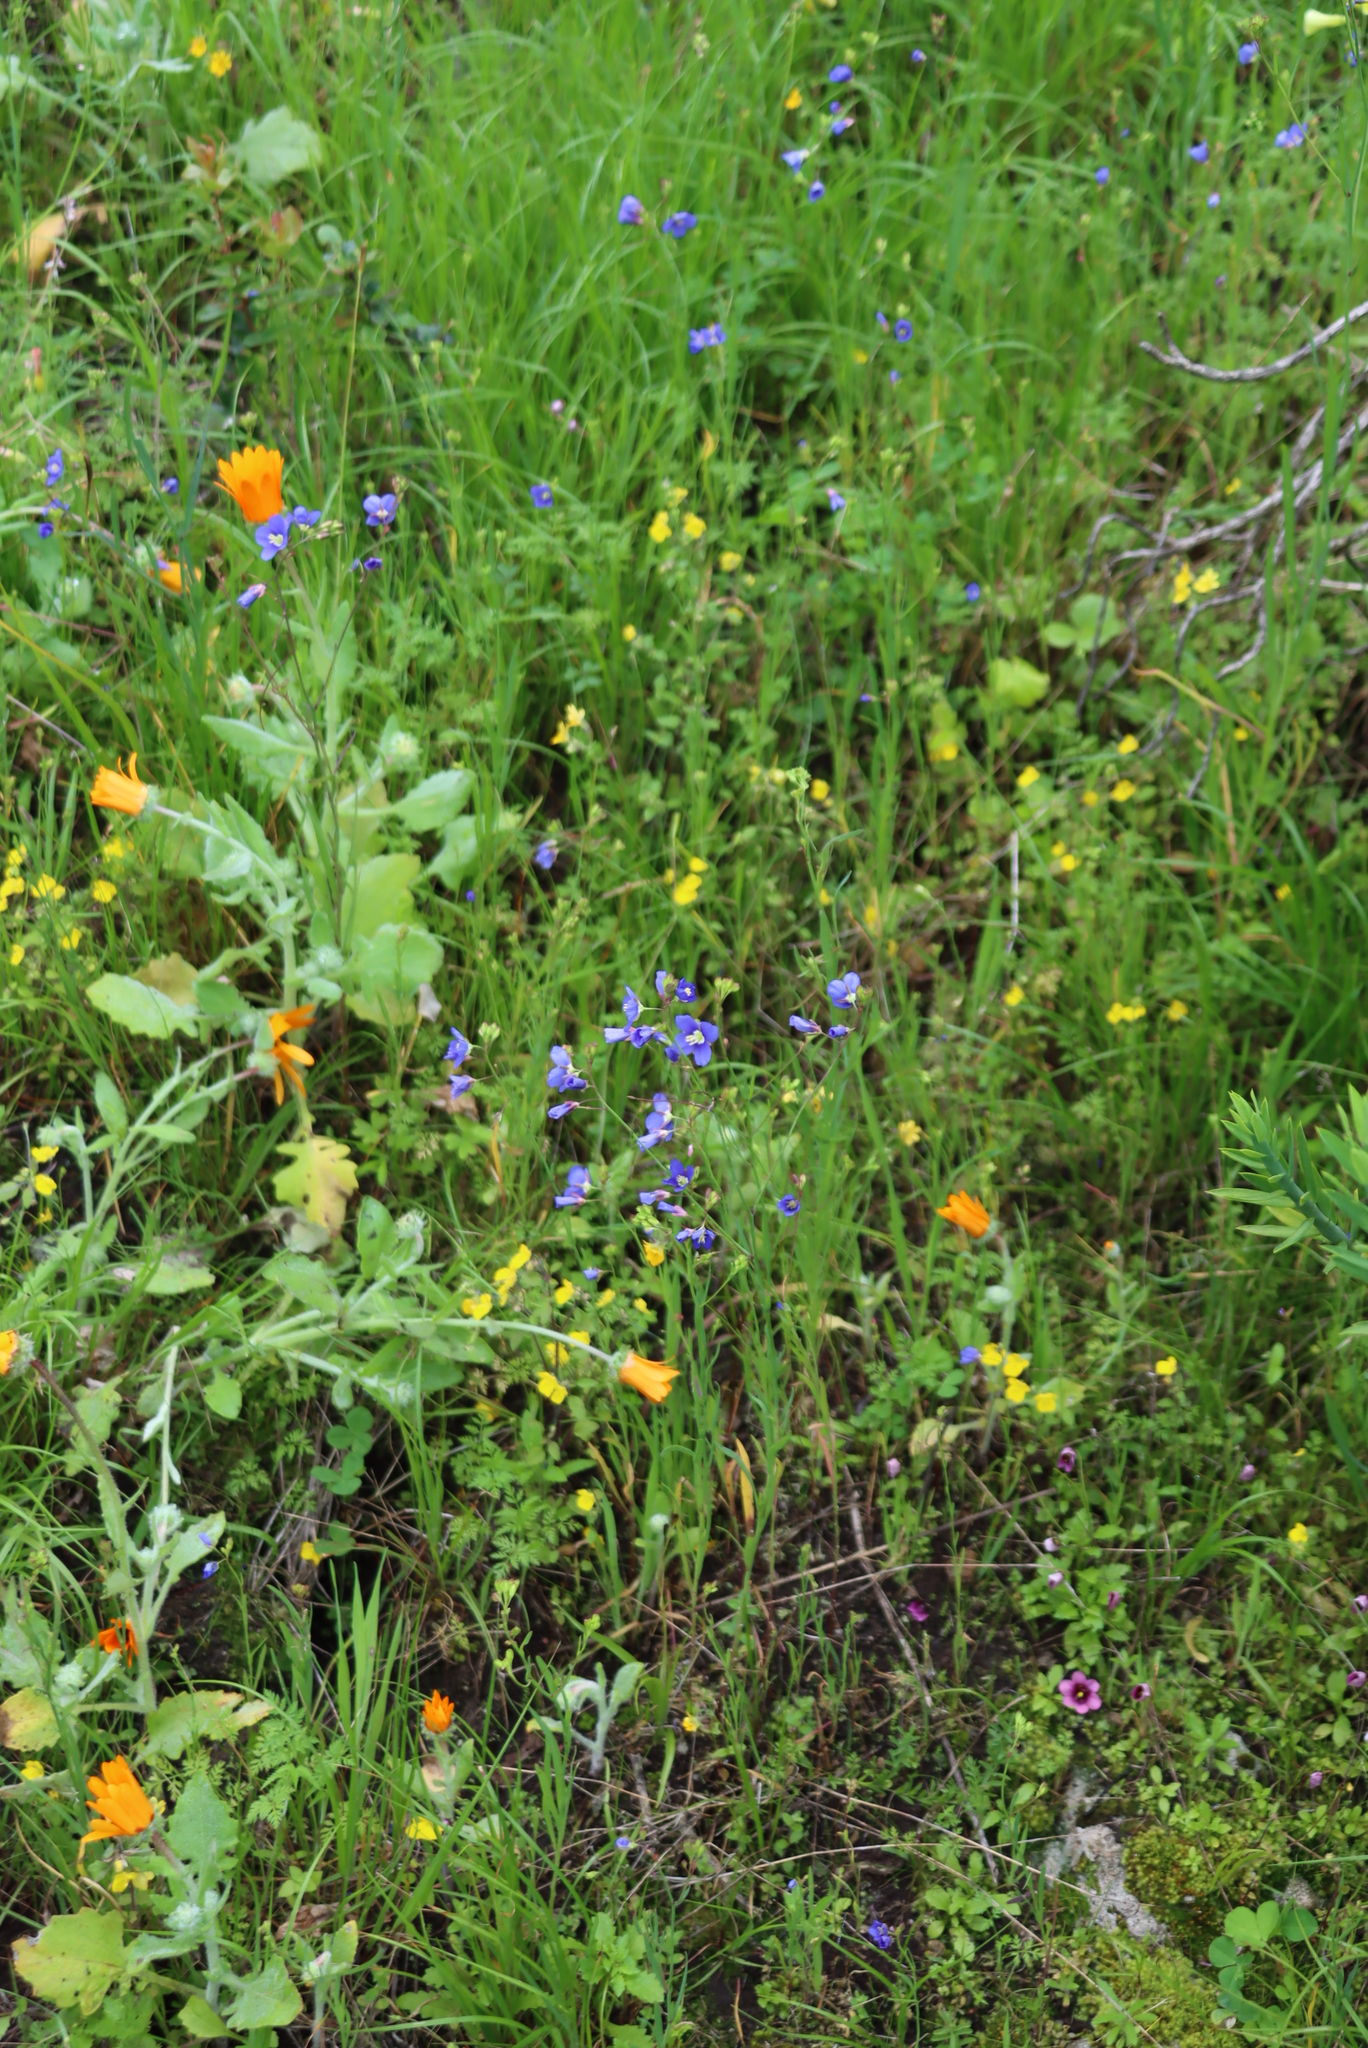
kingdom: Plantae
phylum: Tracheophyta
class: Magnoliopsida
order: Brassicales
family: Brassicaceae
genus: Heliophila
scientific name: Heliophila coronopifolia
